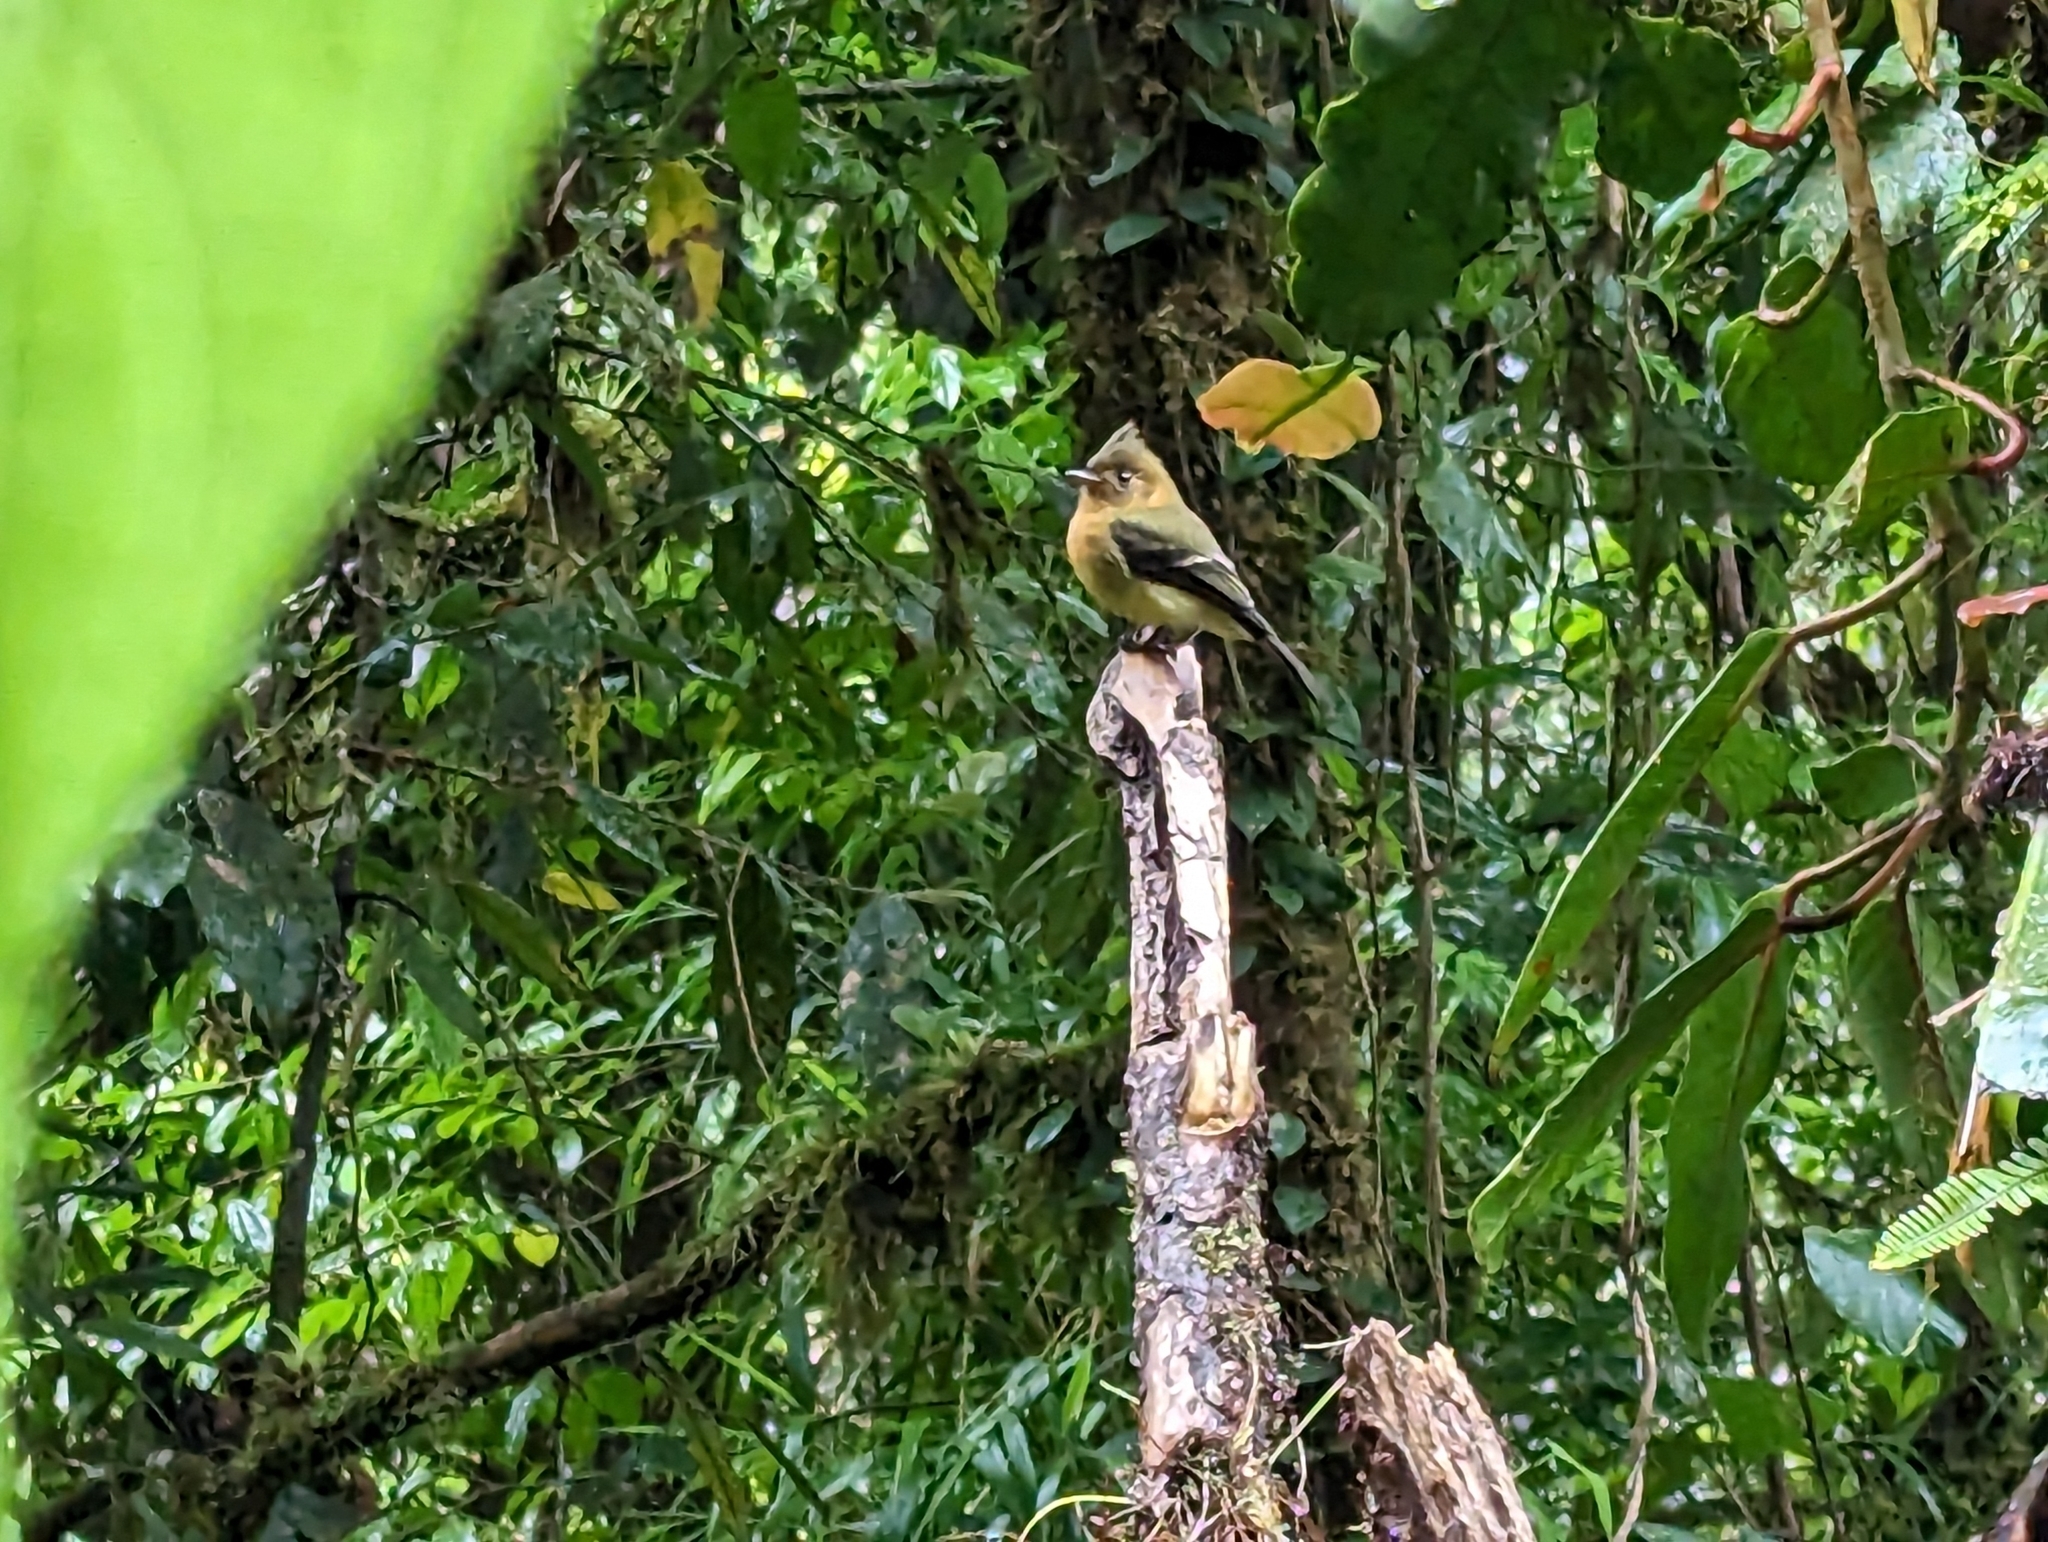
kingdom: Animalia
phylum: Chordata
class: Aves
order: Passeriformes
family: Tyrannidae
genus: Mitrephanes
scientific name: Mitrephanes phaeocercus
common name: Northern tufted flycatcher
